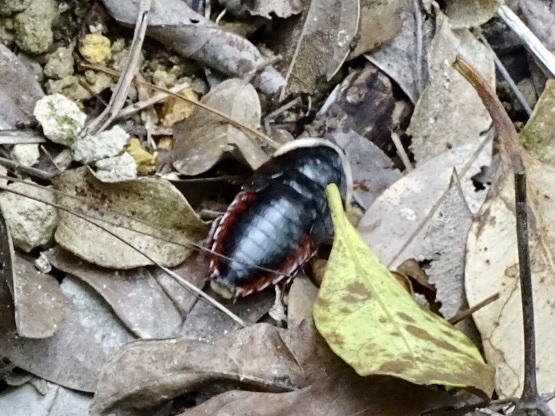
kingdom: Animalia
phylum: Arthropoda
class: Insecta
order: Blattodea
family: Blaberidae
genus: Opisthoplatia
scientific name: Opisthoplatia orientalis
